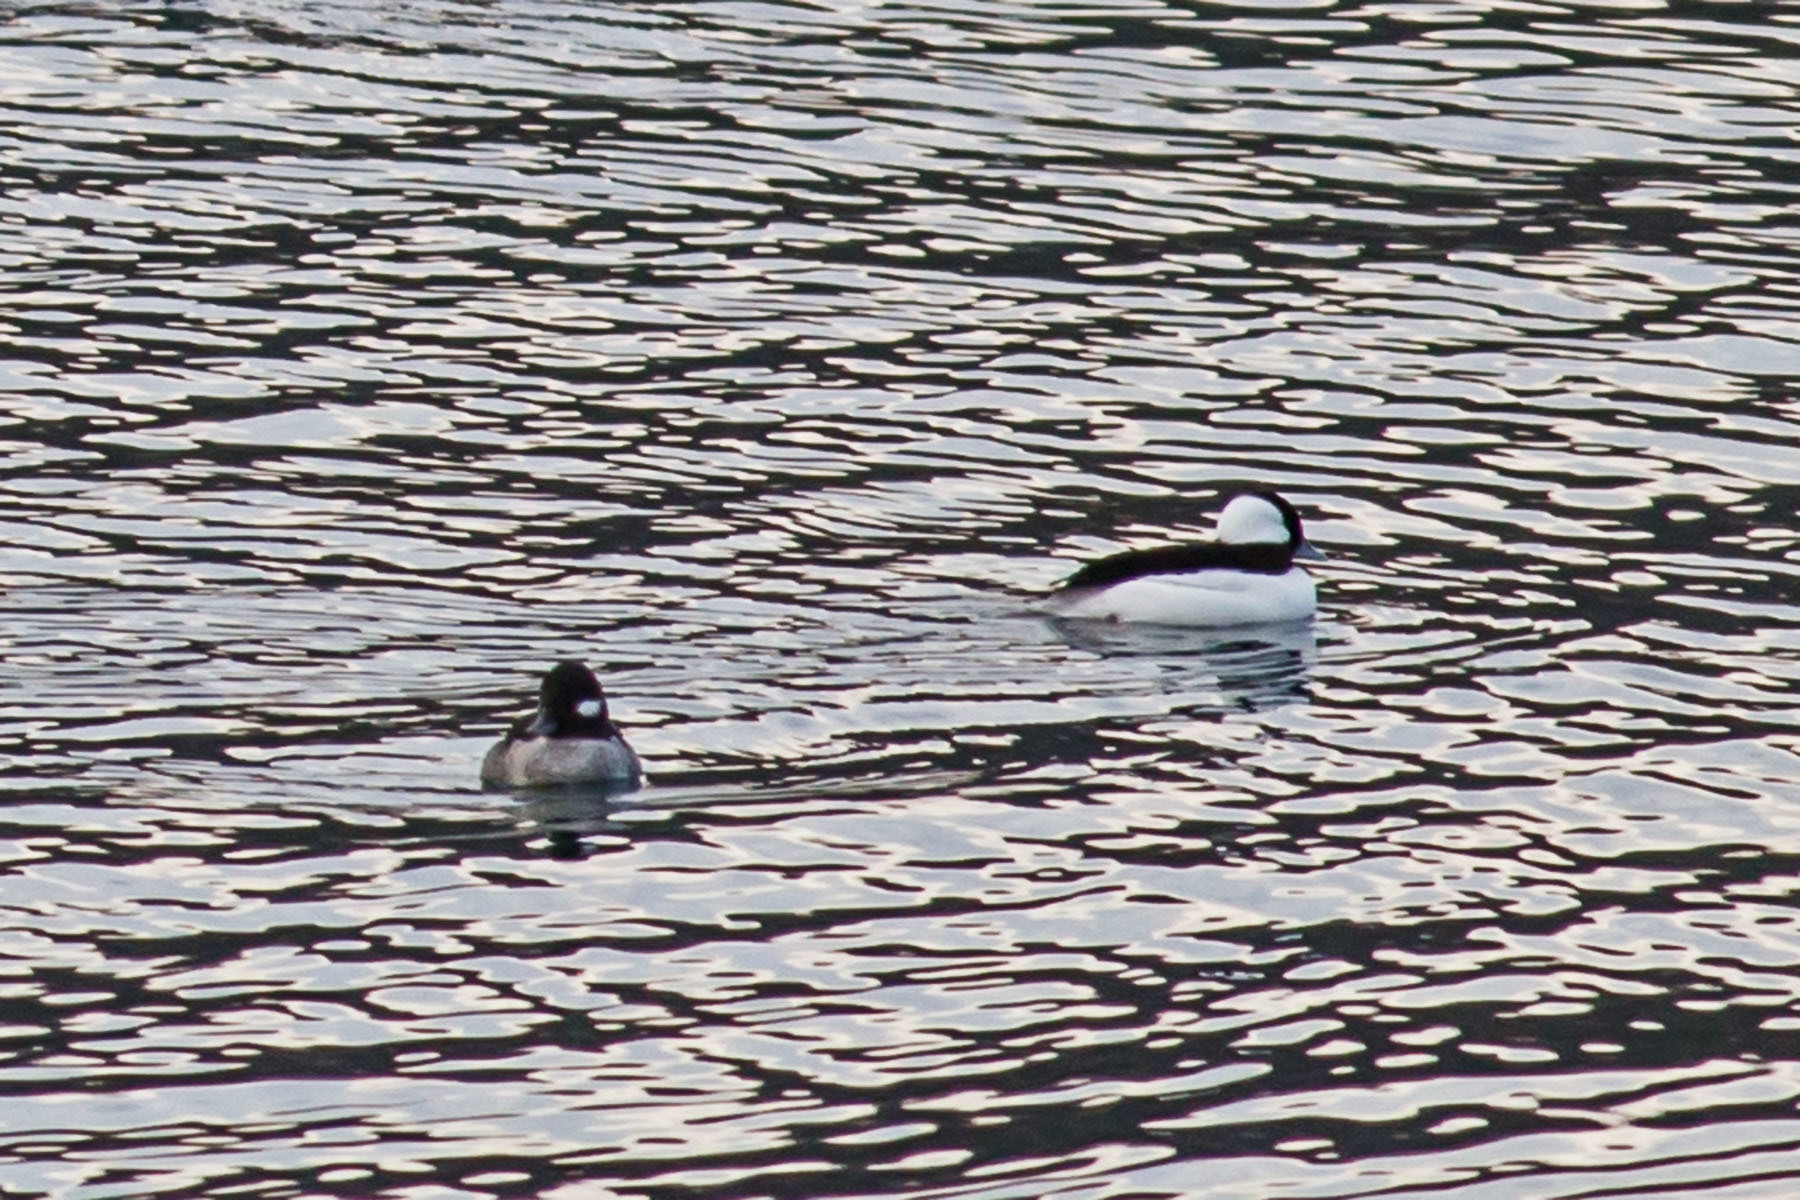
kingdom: Animalia
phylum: Chordata
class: Aves
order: Anseriformes
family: Anatidae
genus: Bucephala
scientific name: Bucephala albeola
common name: Bufflehead
